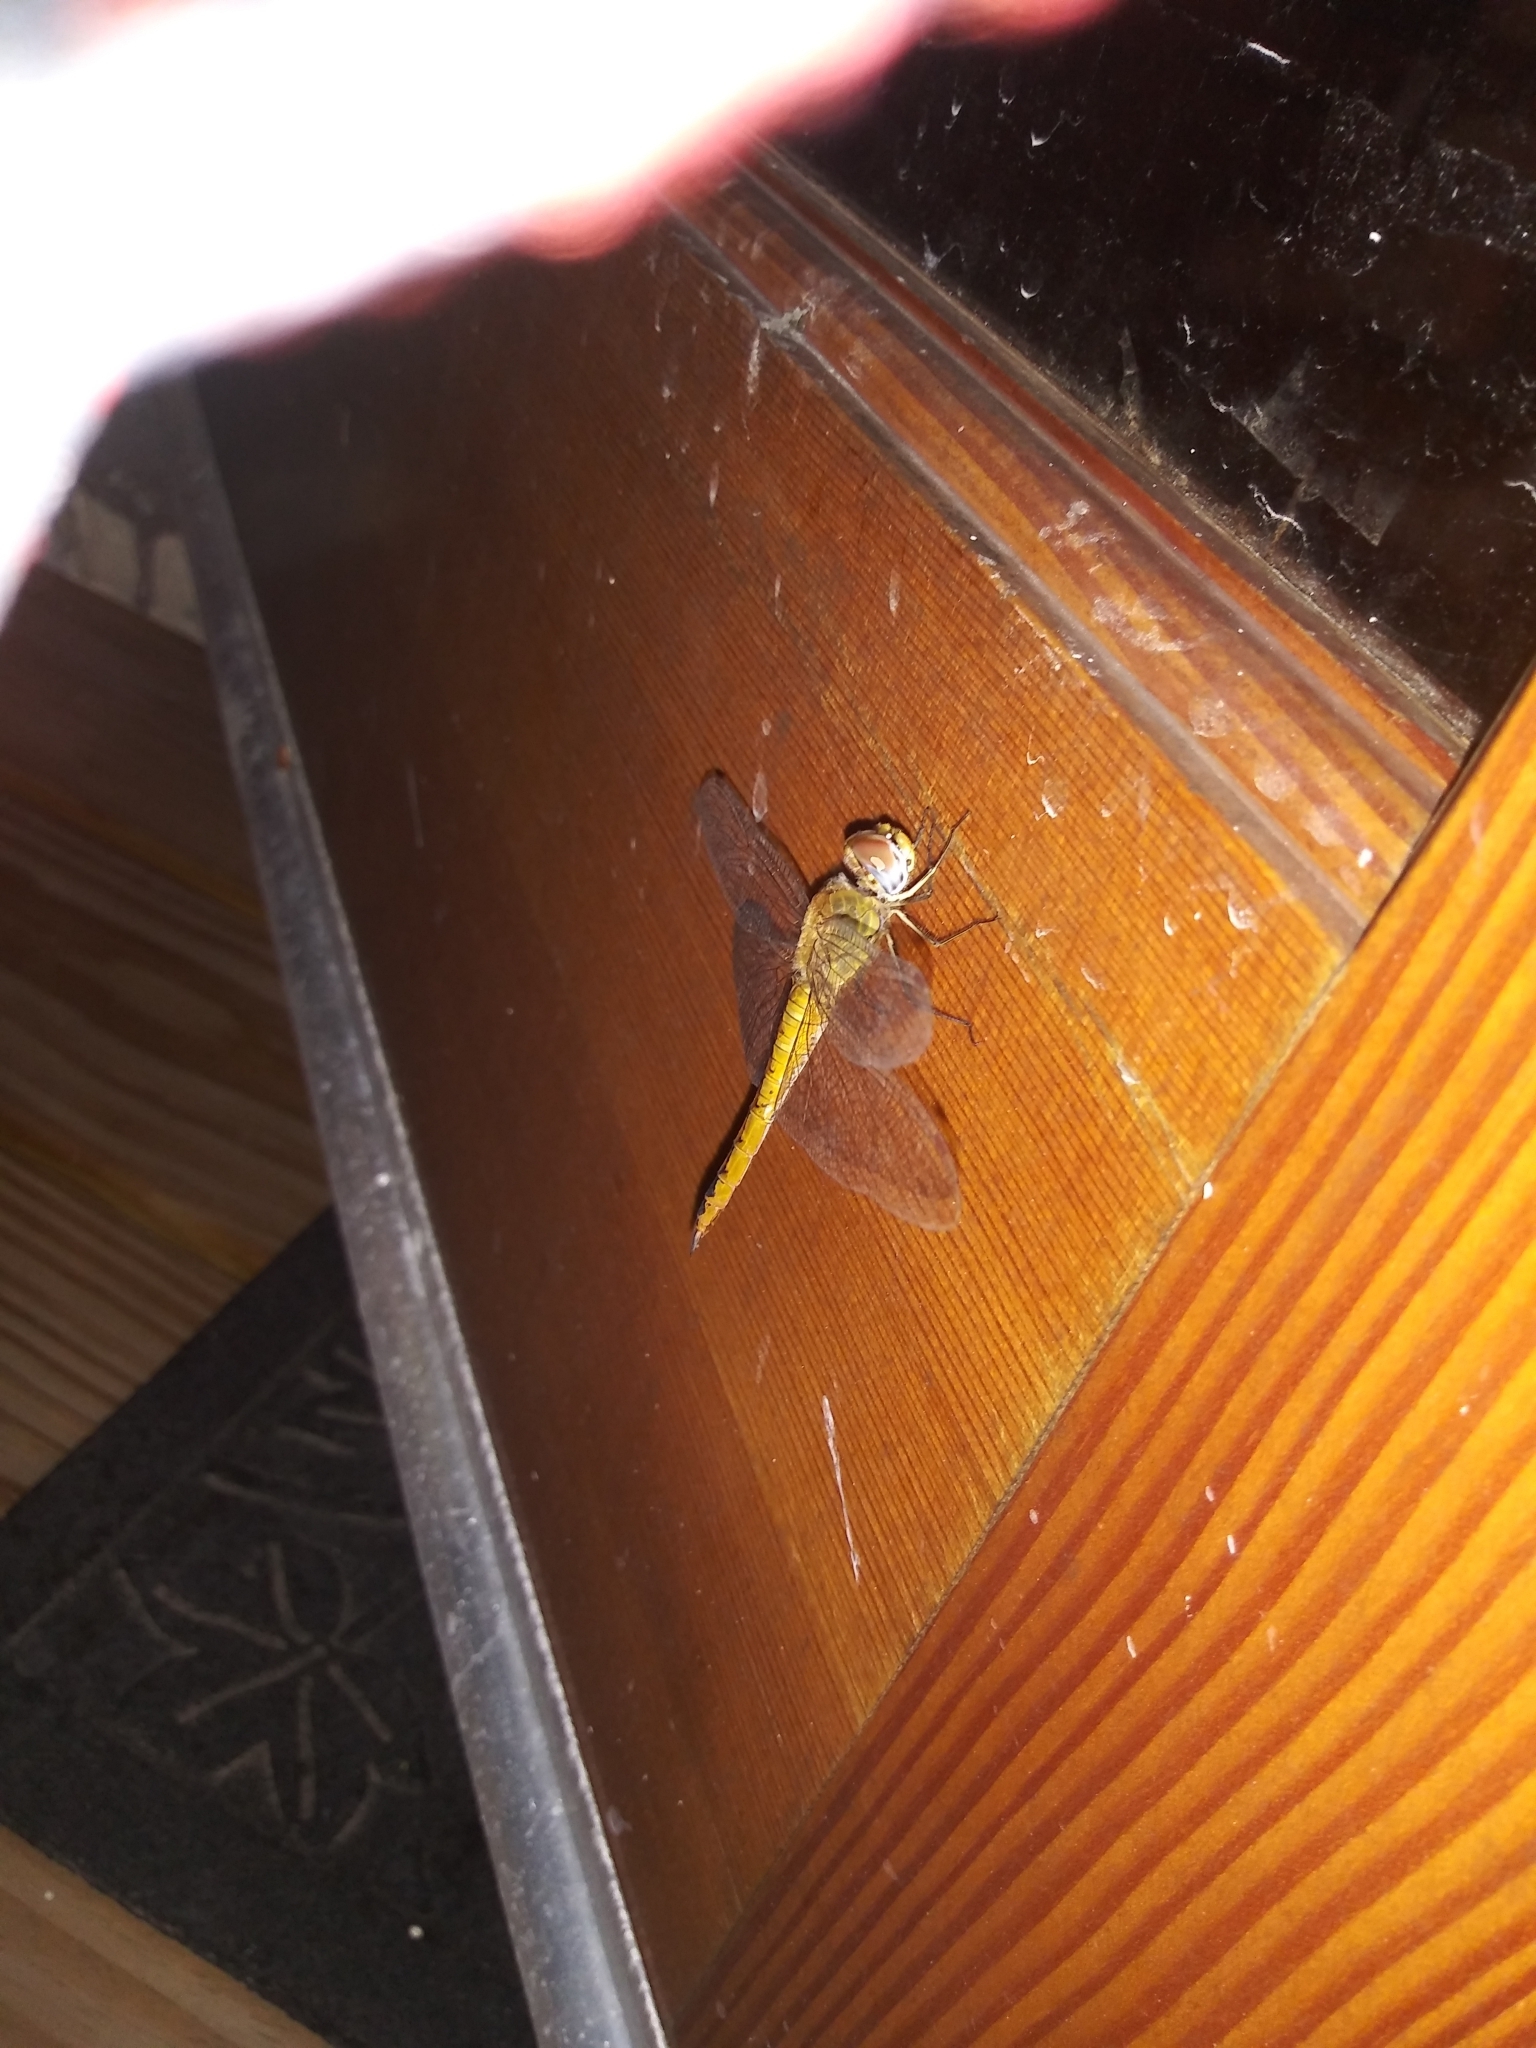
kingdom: Animalia
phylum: Arthropoda
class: Insecta
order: Odonata
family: Libellulidae
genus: Pantala
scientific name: Pantala flavescens
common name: Wandering glider
